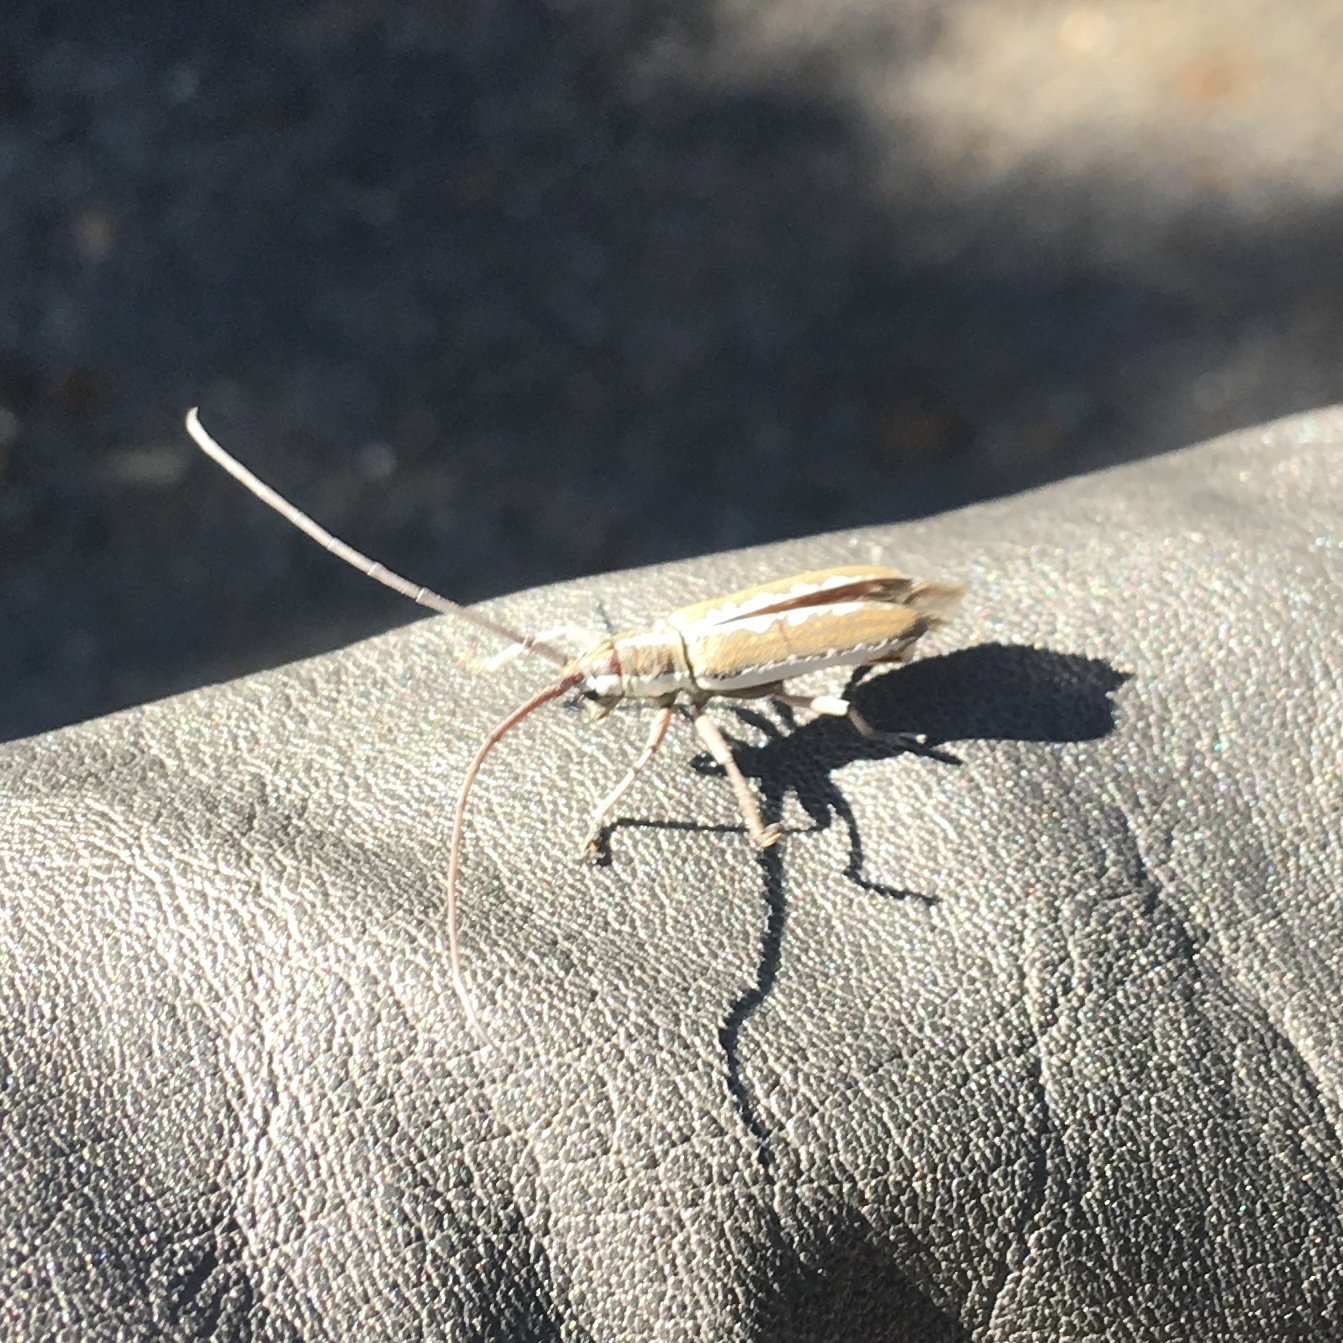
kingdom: Animalia
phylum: Arthropoda
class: Insecta
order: Coleoptera
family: Cerambycidae
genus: Neoptychodes
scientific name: Neoptychodes trilineatus
